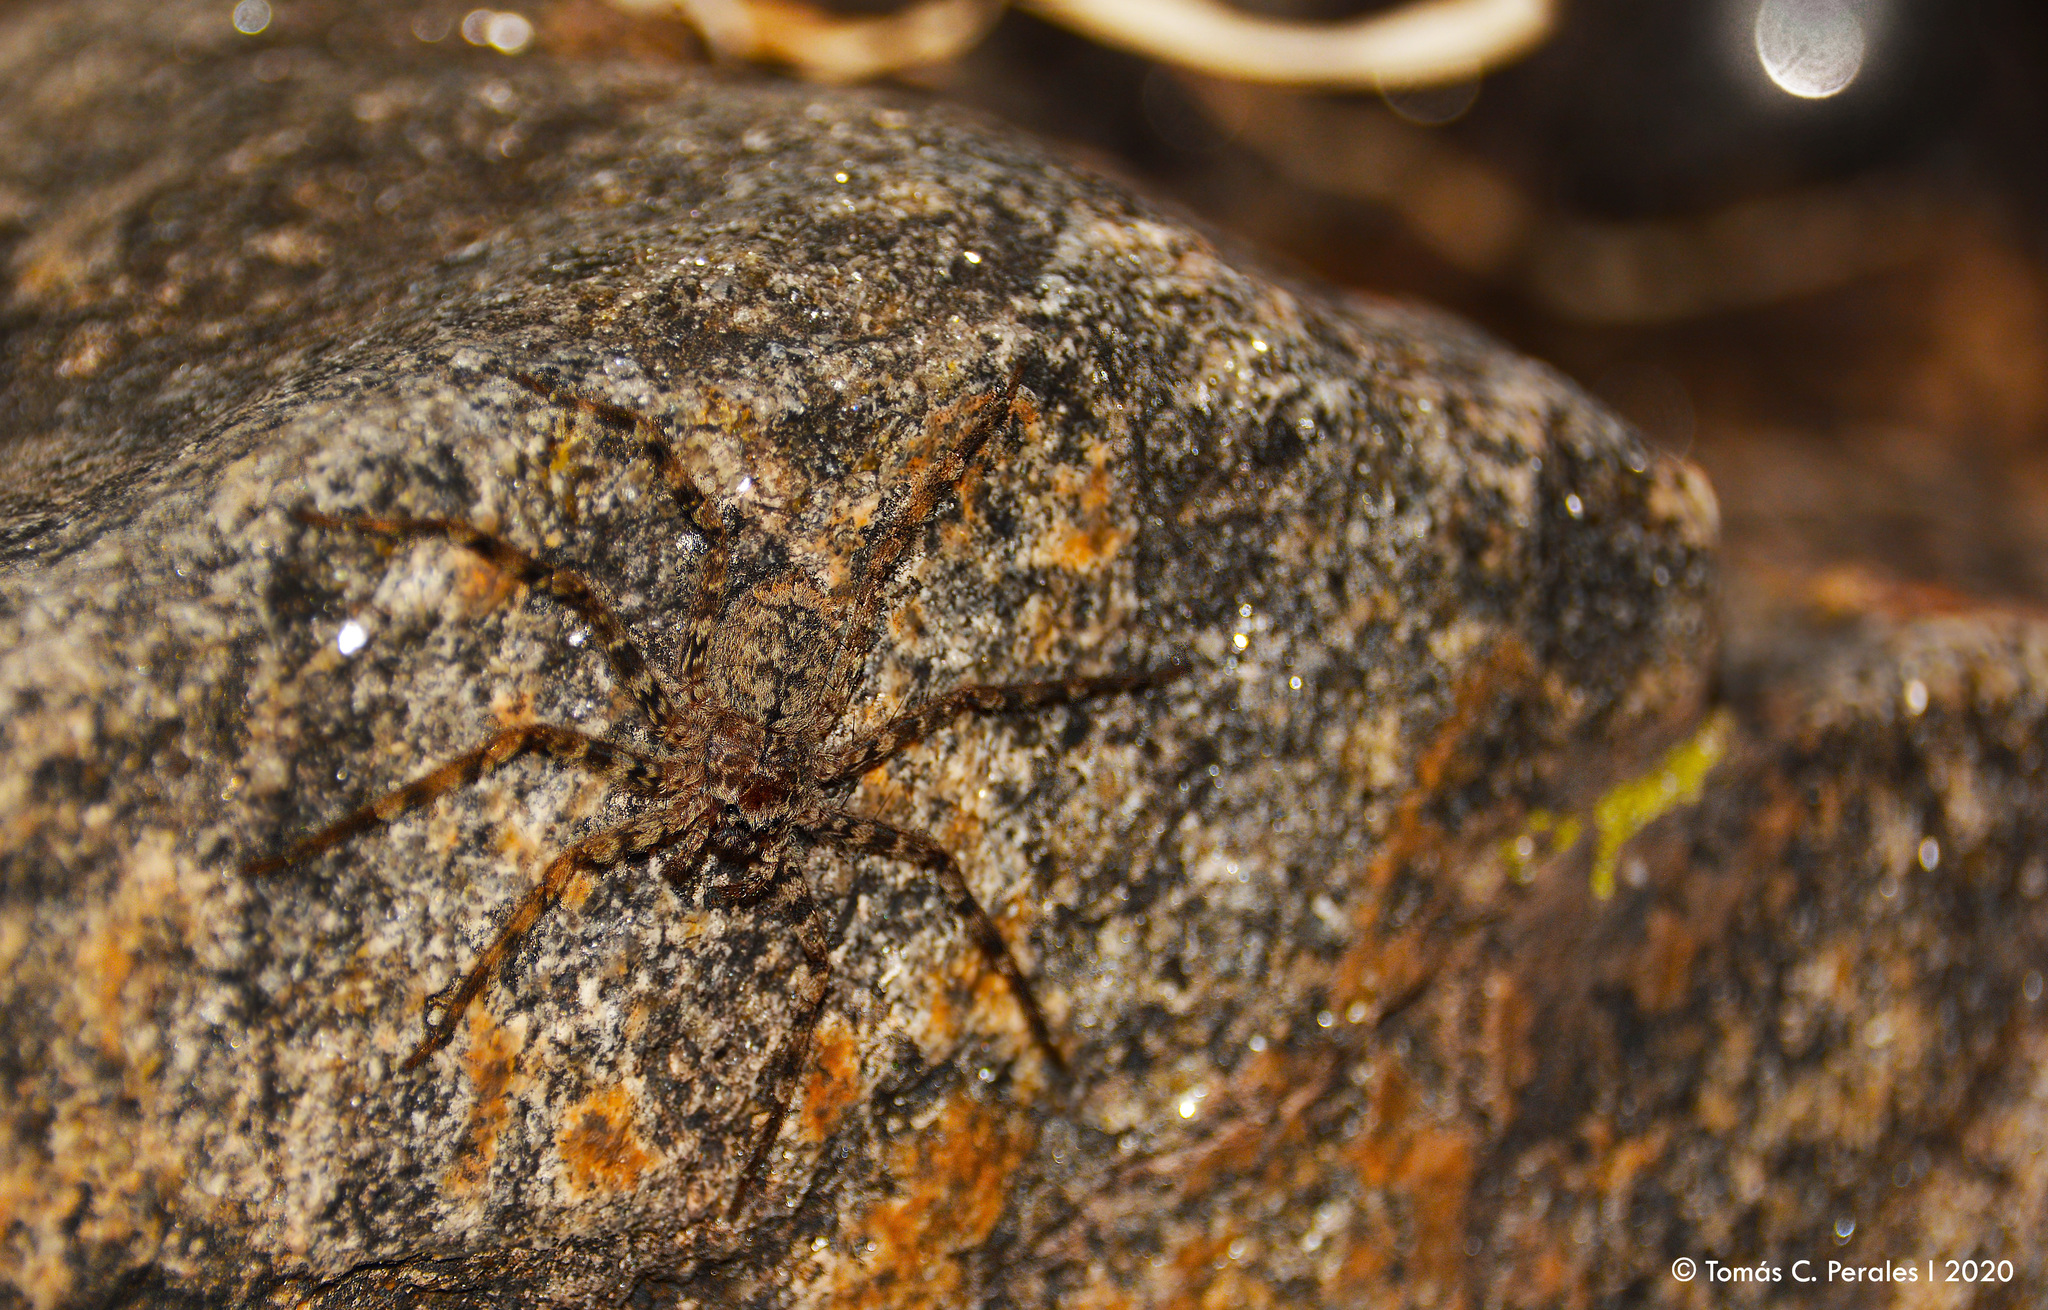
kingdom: Animalia
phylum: Arthropoda
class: Arachnida
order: Araneae
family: Selenopidae
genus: Selenops
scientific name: Selenops
